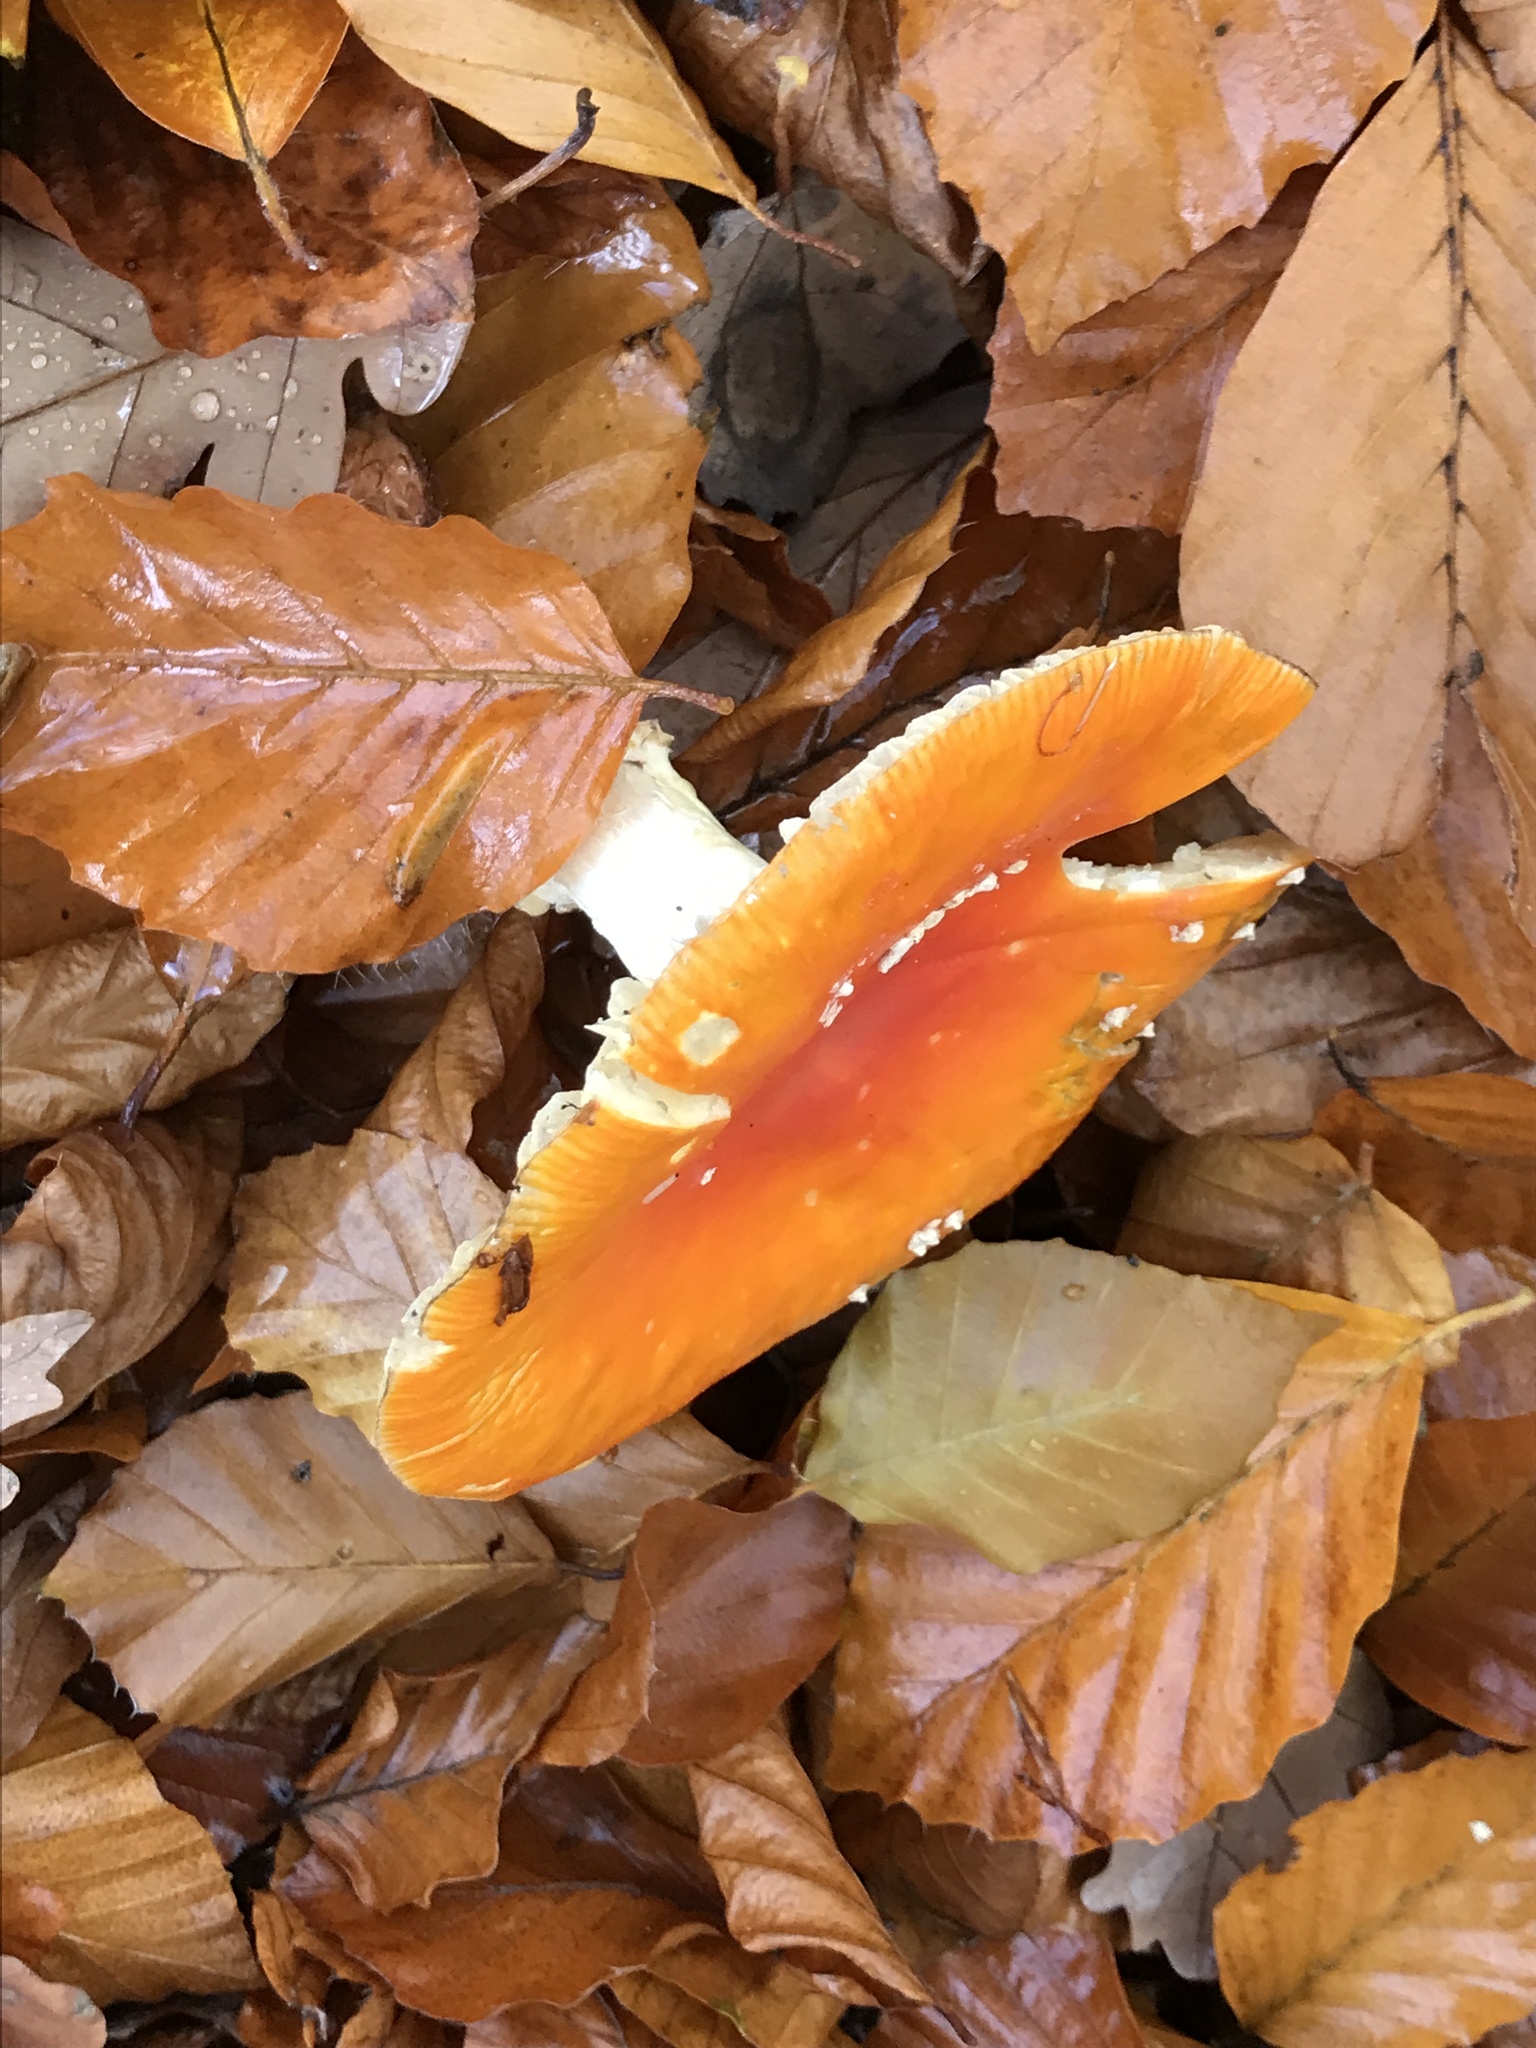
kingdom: Fungi
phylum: Basidiomycota
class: Agaricomycetes
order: Agaricales
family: Amanitaceae
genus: Amanita
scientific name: Amanita muscaria
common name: Fly agaric
